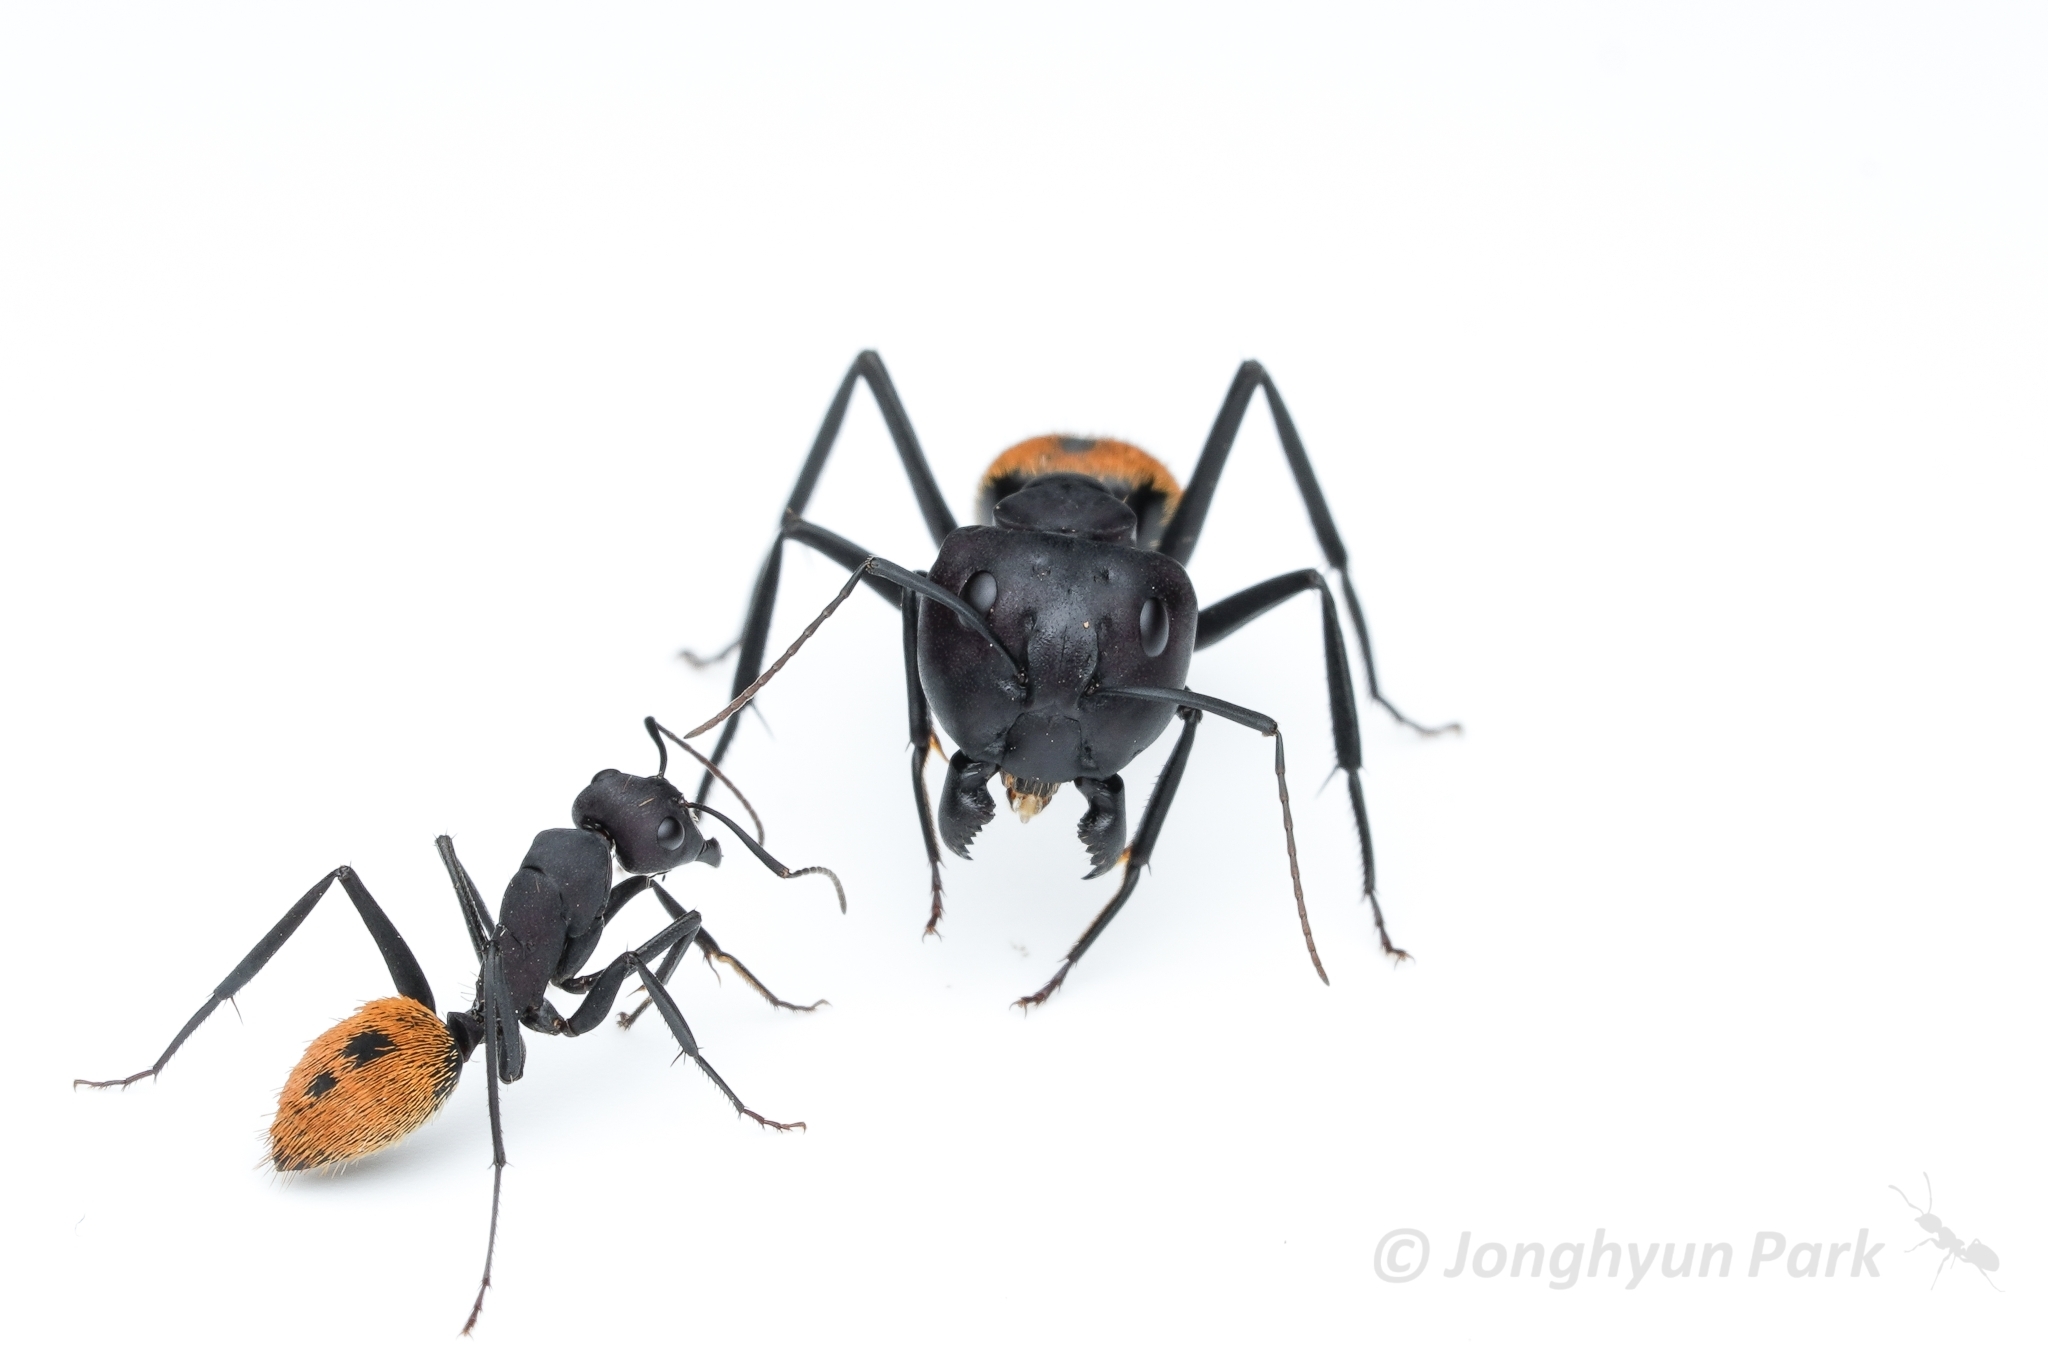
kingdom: Animalia
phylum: Arthropoda
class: Insecta
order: Hymenoptera
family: Formicidae
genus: Camponotus
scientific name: Camponotus fulvopilosus
